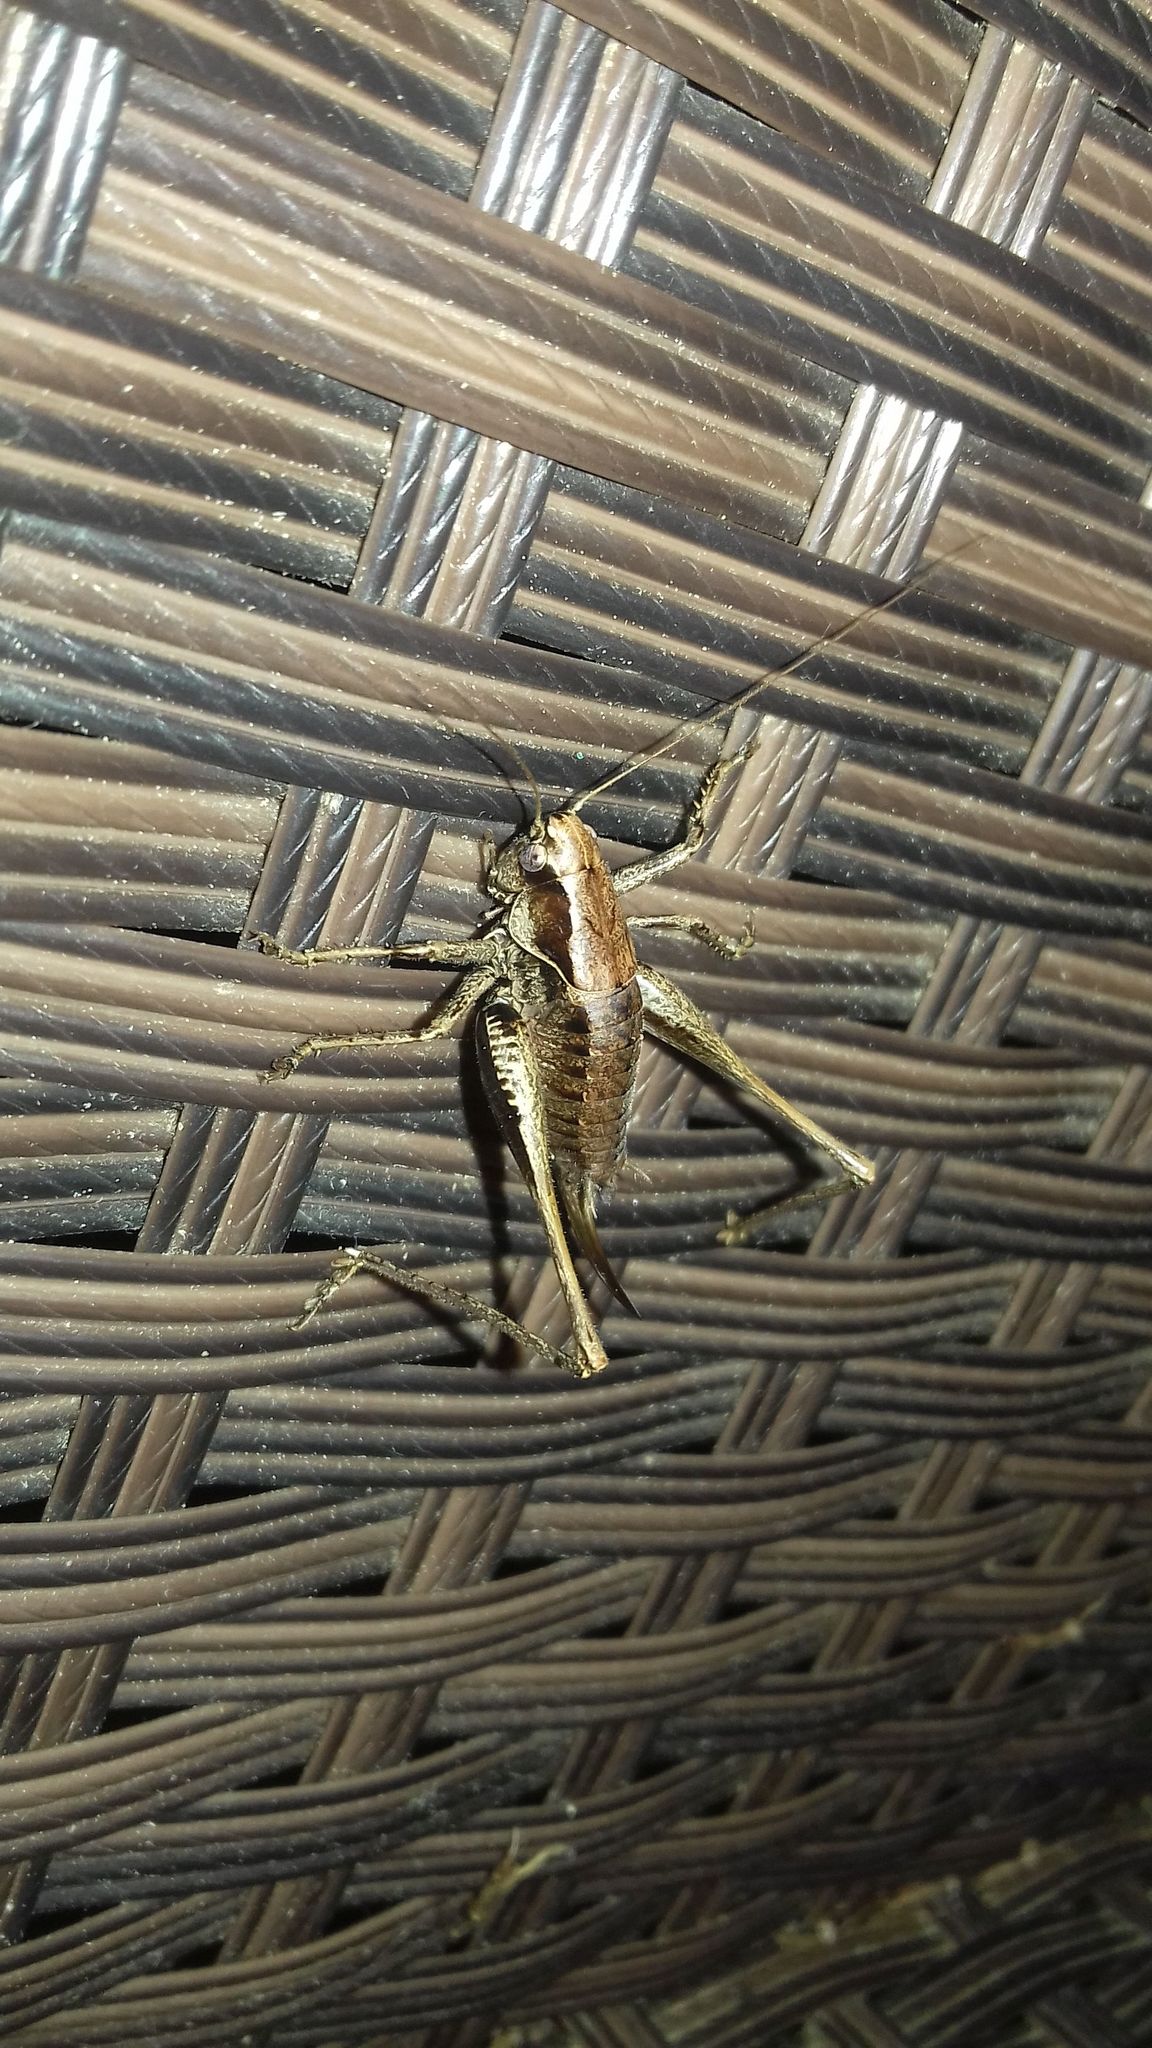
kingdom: Animalia
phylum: Arthropoda
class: Insecta
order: Orthoptera
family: Tettigoniidae
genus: Pholidoptera
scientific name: Pholidoptera griseoaptera
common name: Dark bush-cricket
